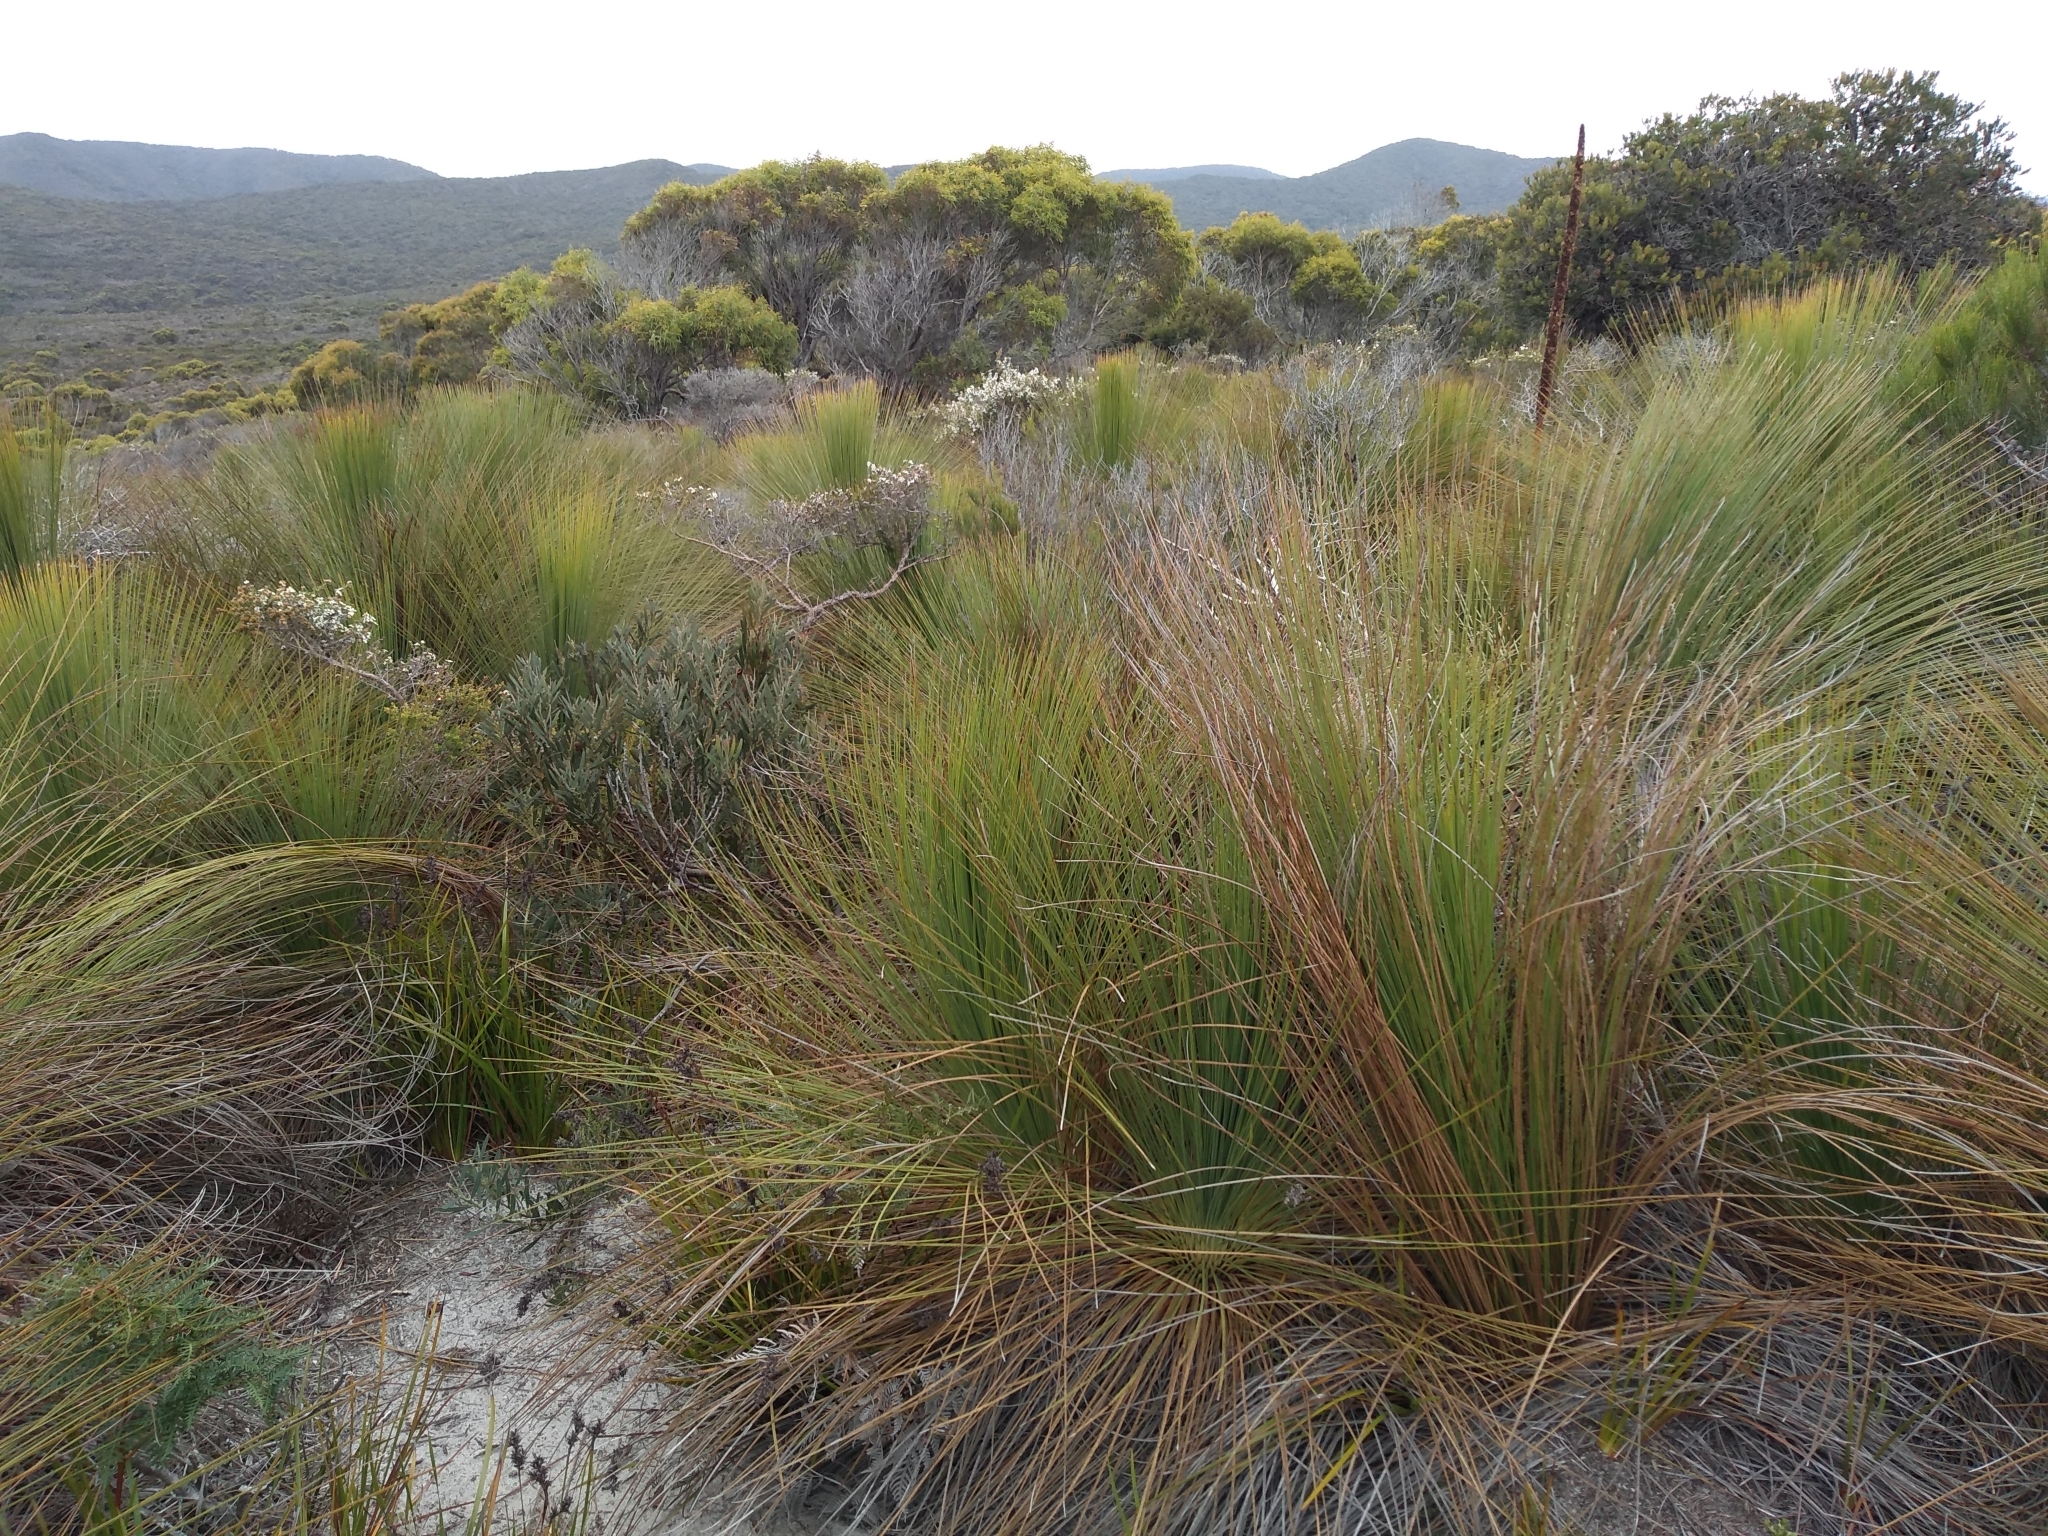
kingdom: Plantae
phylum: Tracheophyta
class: Liliopsida
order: Asparagales
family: Asphodelaceae
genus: Xanthorrhoea
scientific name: Xanthorrhoea australis
